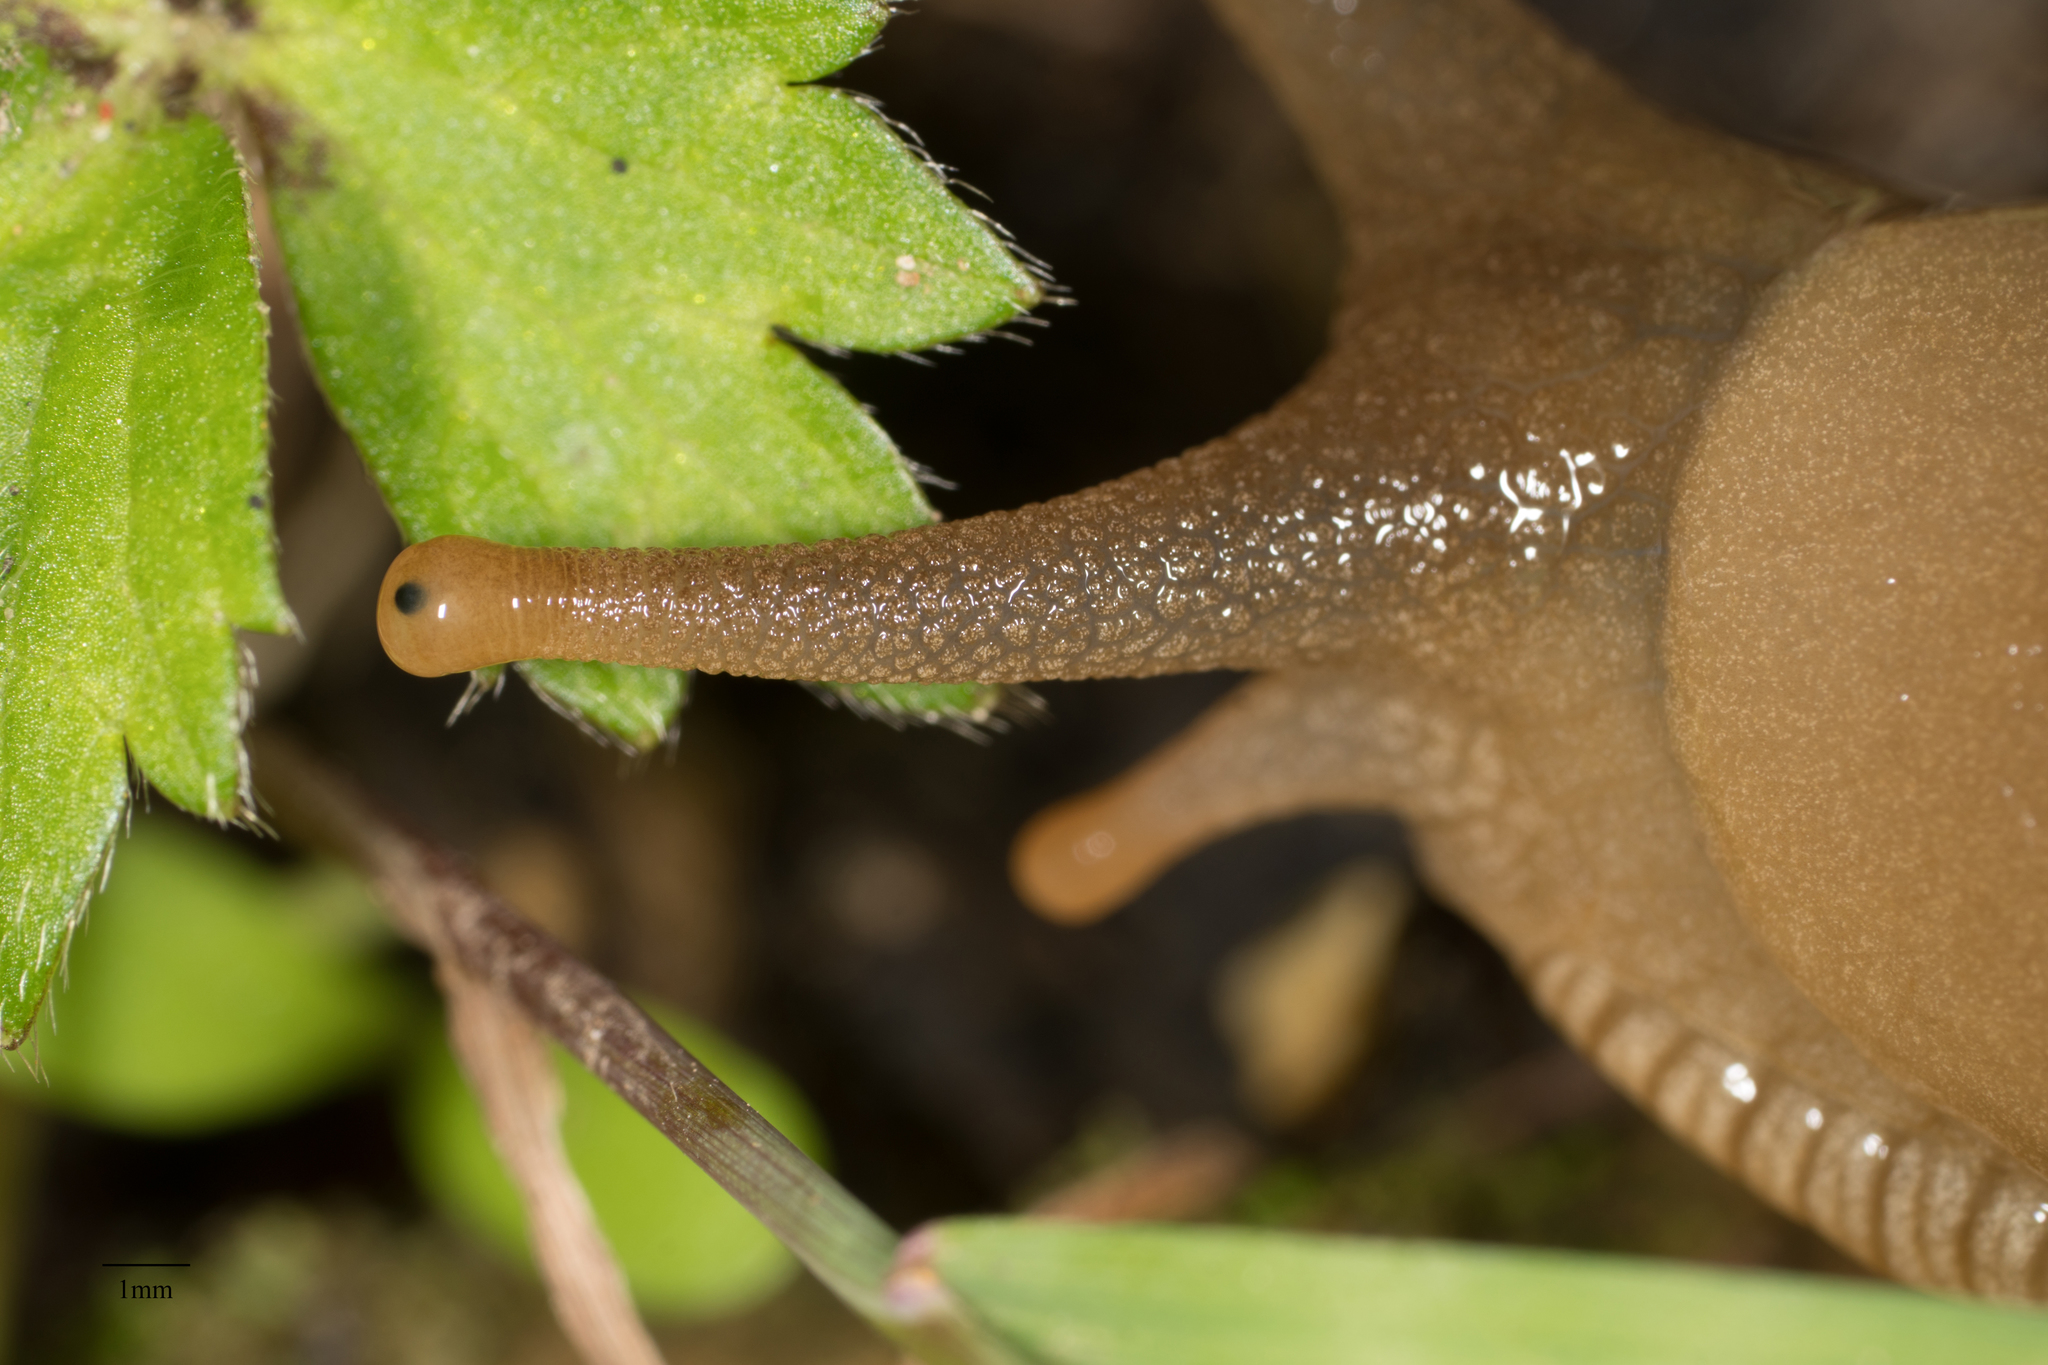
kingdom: Animalia
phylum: Mollusca
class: Gastropoda
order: Stylommatophora
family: Ariolimacidae
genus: Ariolimax
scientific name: Ariolimax columbianus
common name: Pacific banana slug
